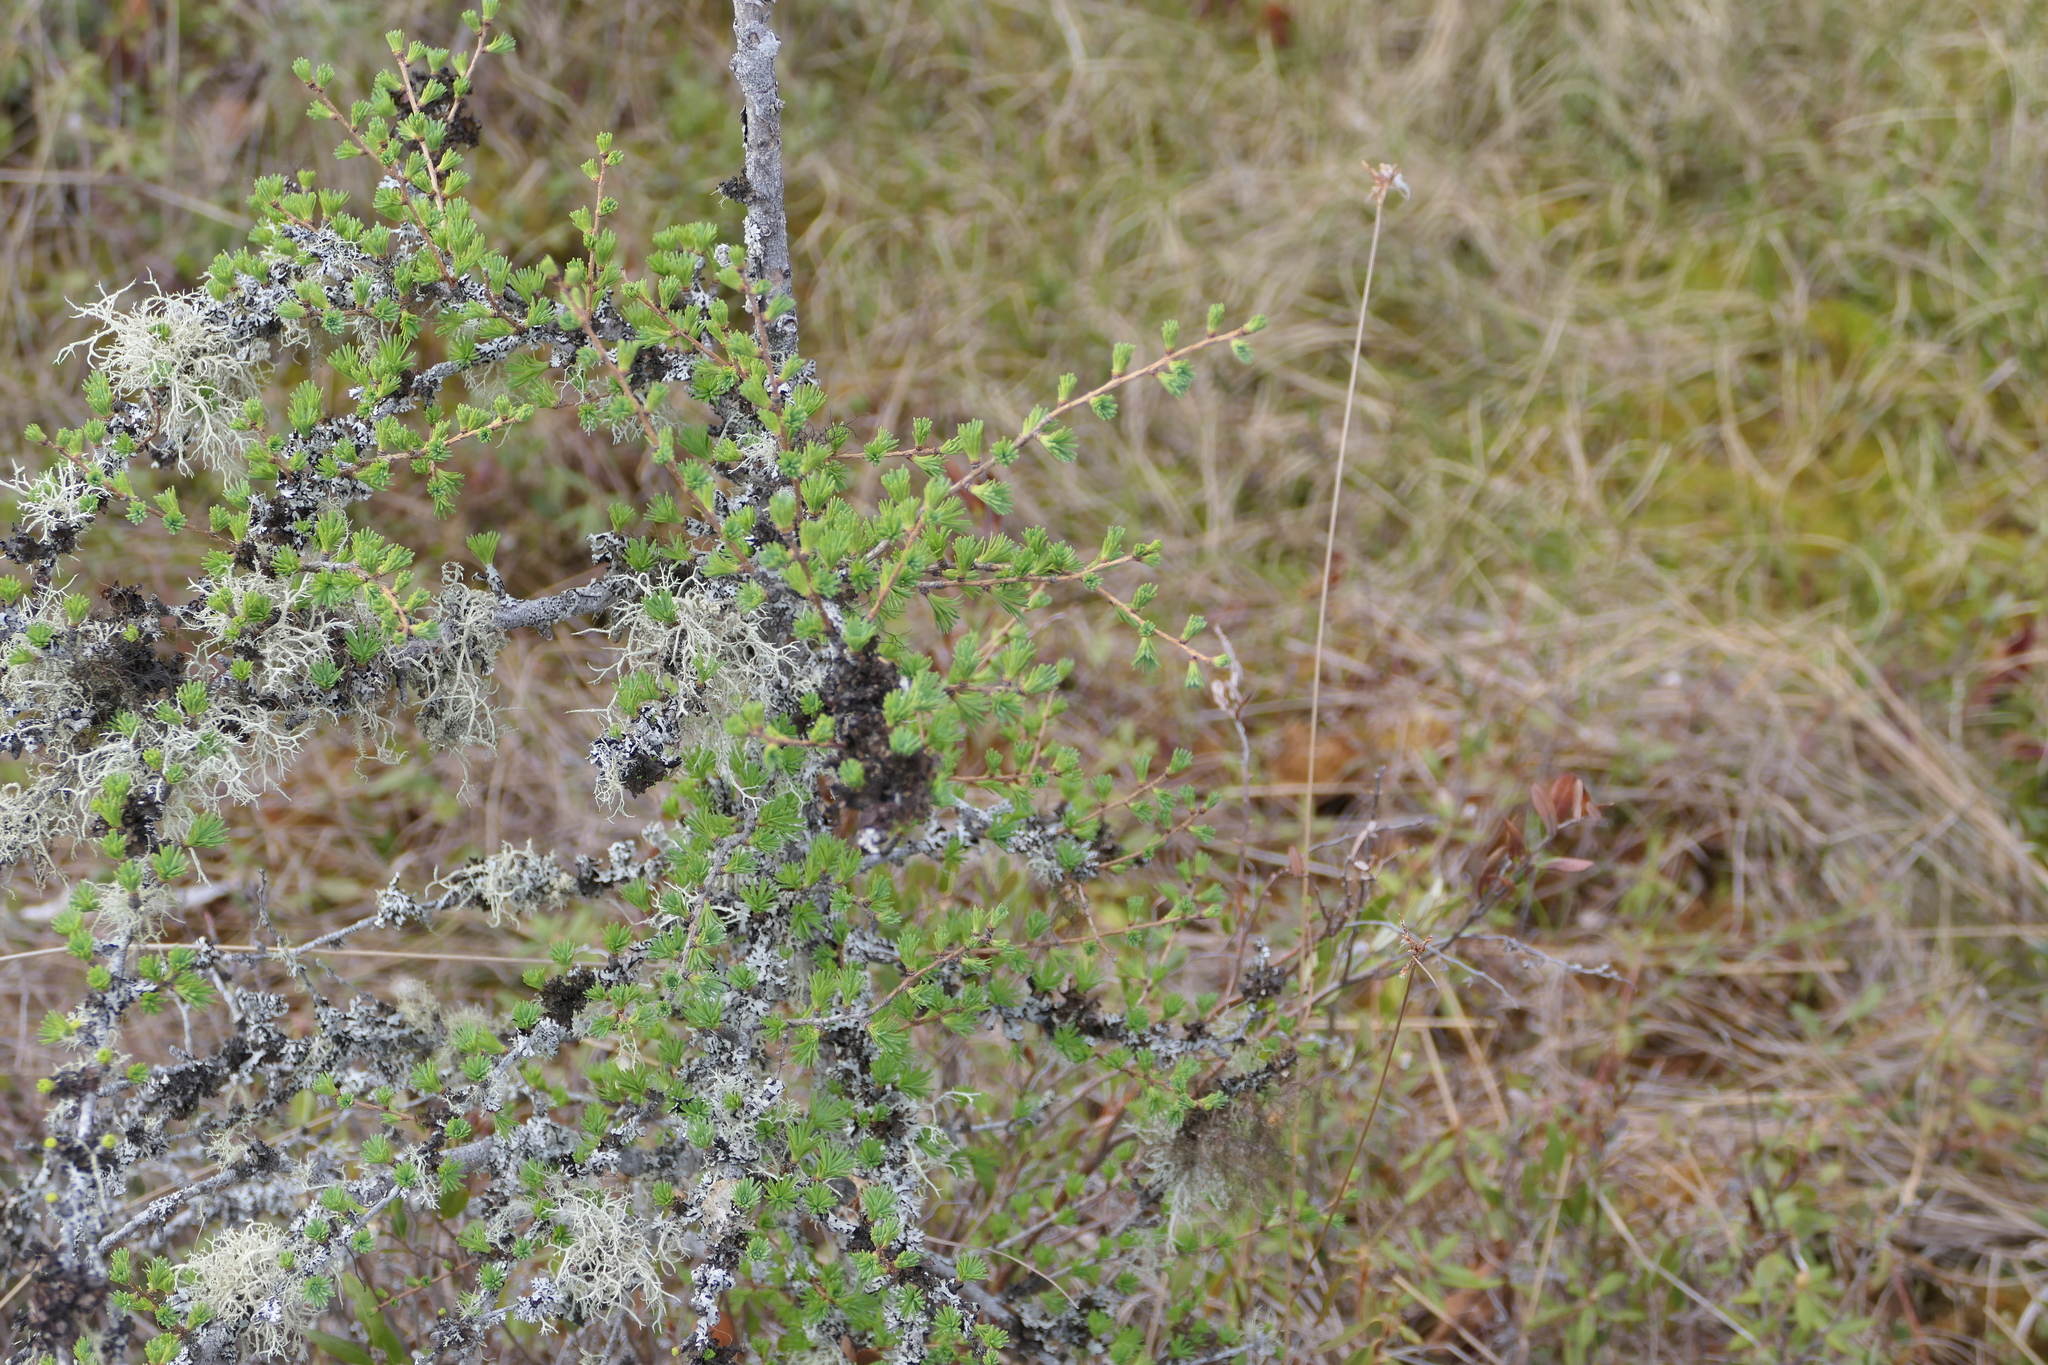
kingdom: Plantae
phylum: Tracheophyta
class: Pinopsida
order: Pinales
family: Pinaceae
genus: Larix
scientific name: Larix laricina
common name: American larch
